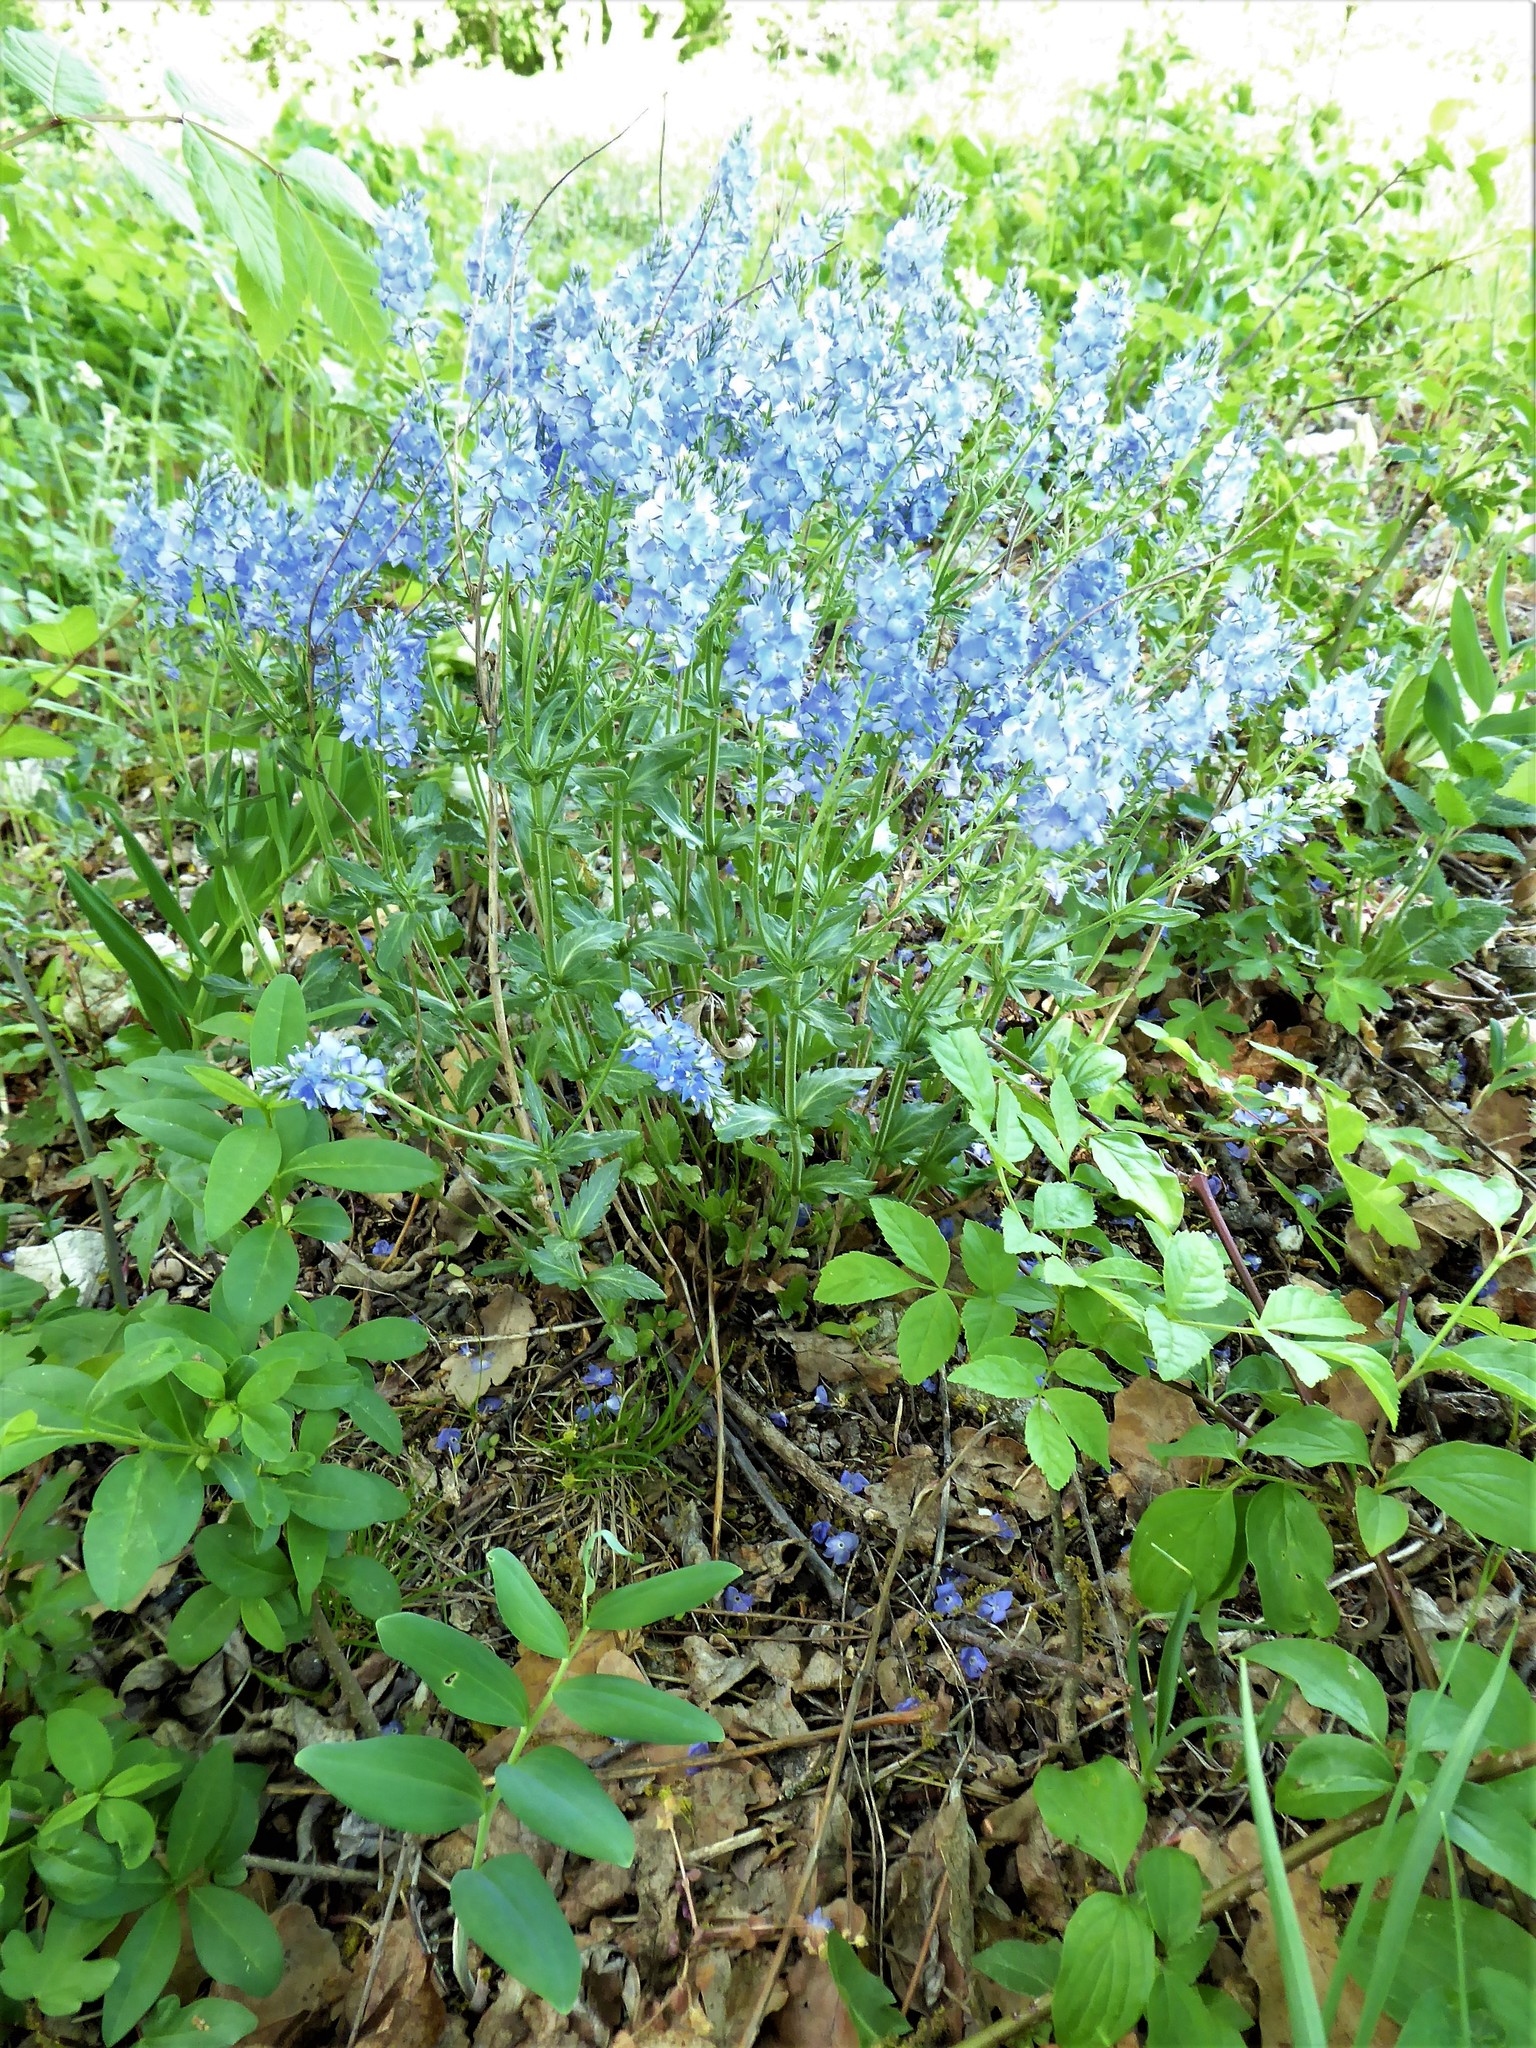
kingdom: Plantae
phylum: Tracheophyta
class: Magnoliopsida
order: Lamiales
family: Plantaginaceae
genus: Veronica
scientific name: Veronica austriaca
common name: Large speedwell
